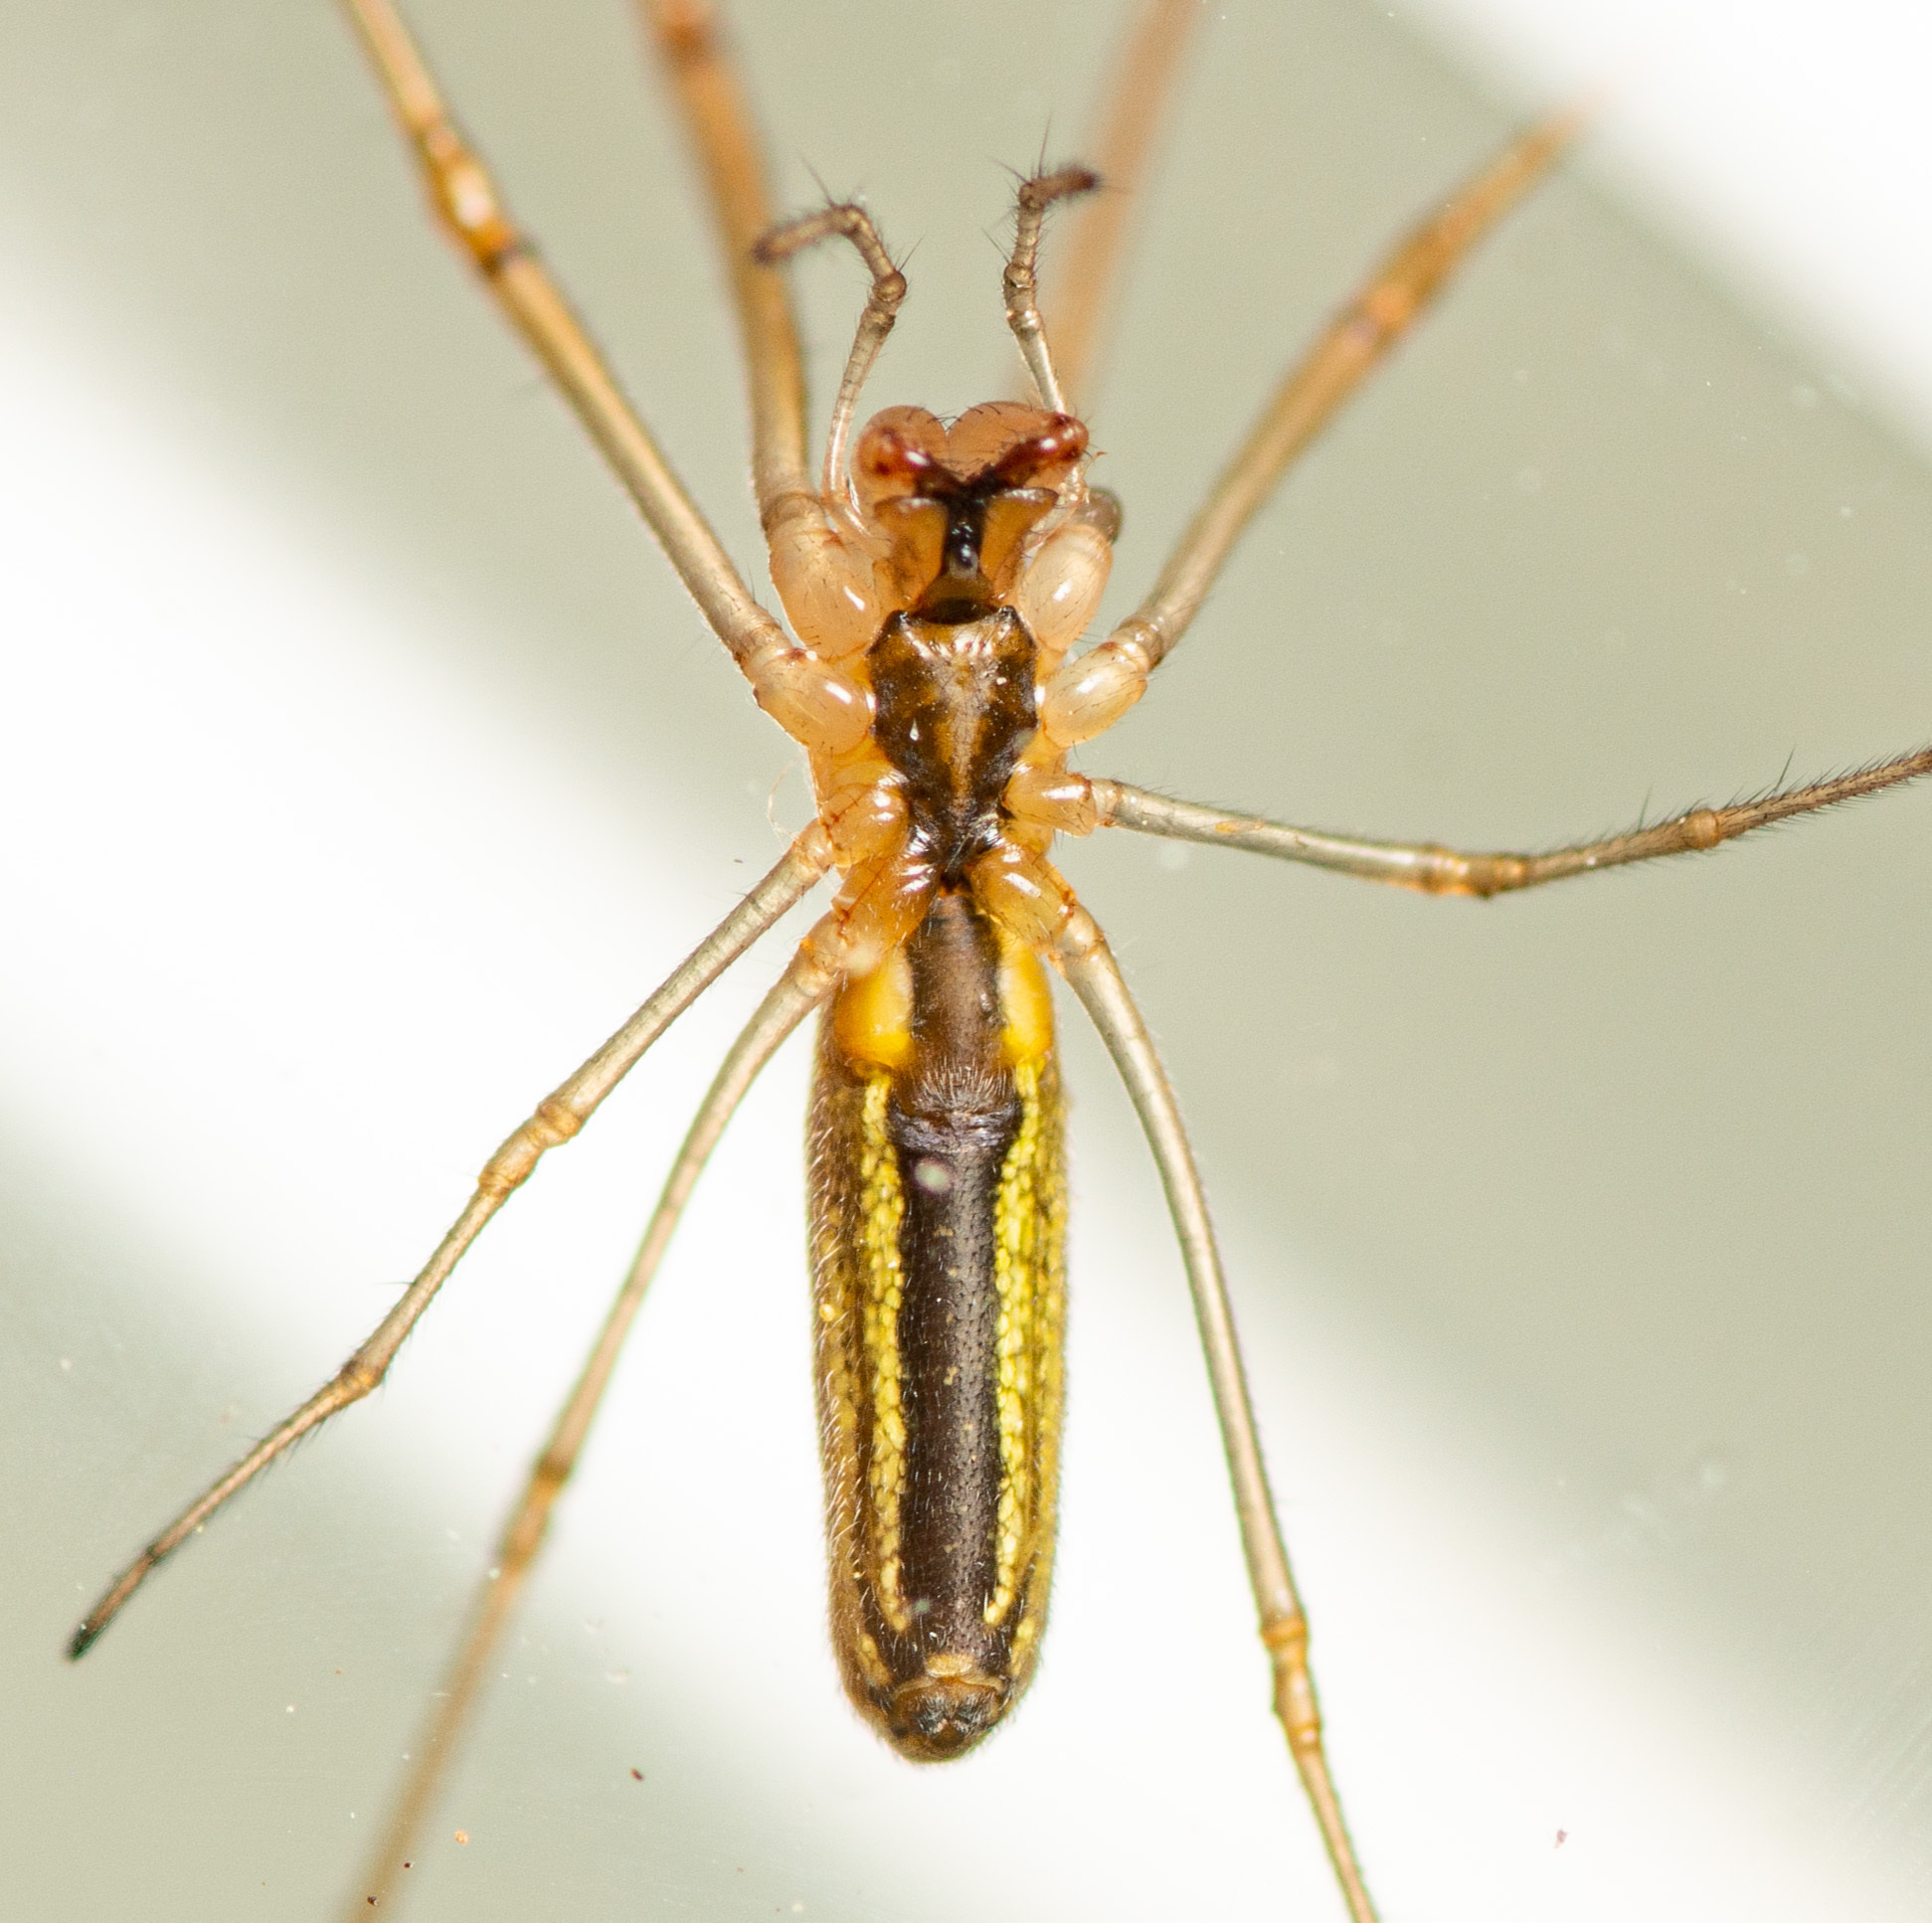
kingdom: Animalia
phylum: Arthropoda
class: Arachnida
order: Araneae
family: Tetragnathidae
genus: Tetragnatha
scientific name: Tetragnatha laboriosa
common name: Longjawed orb weavers
